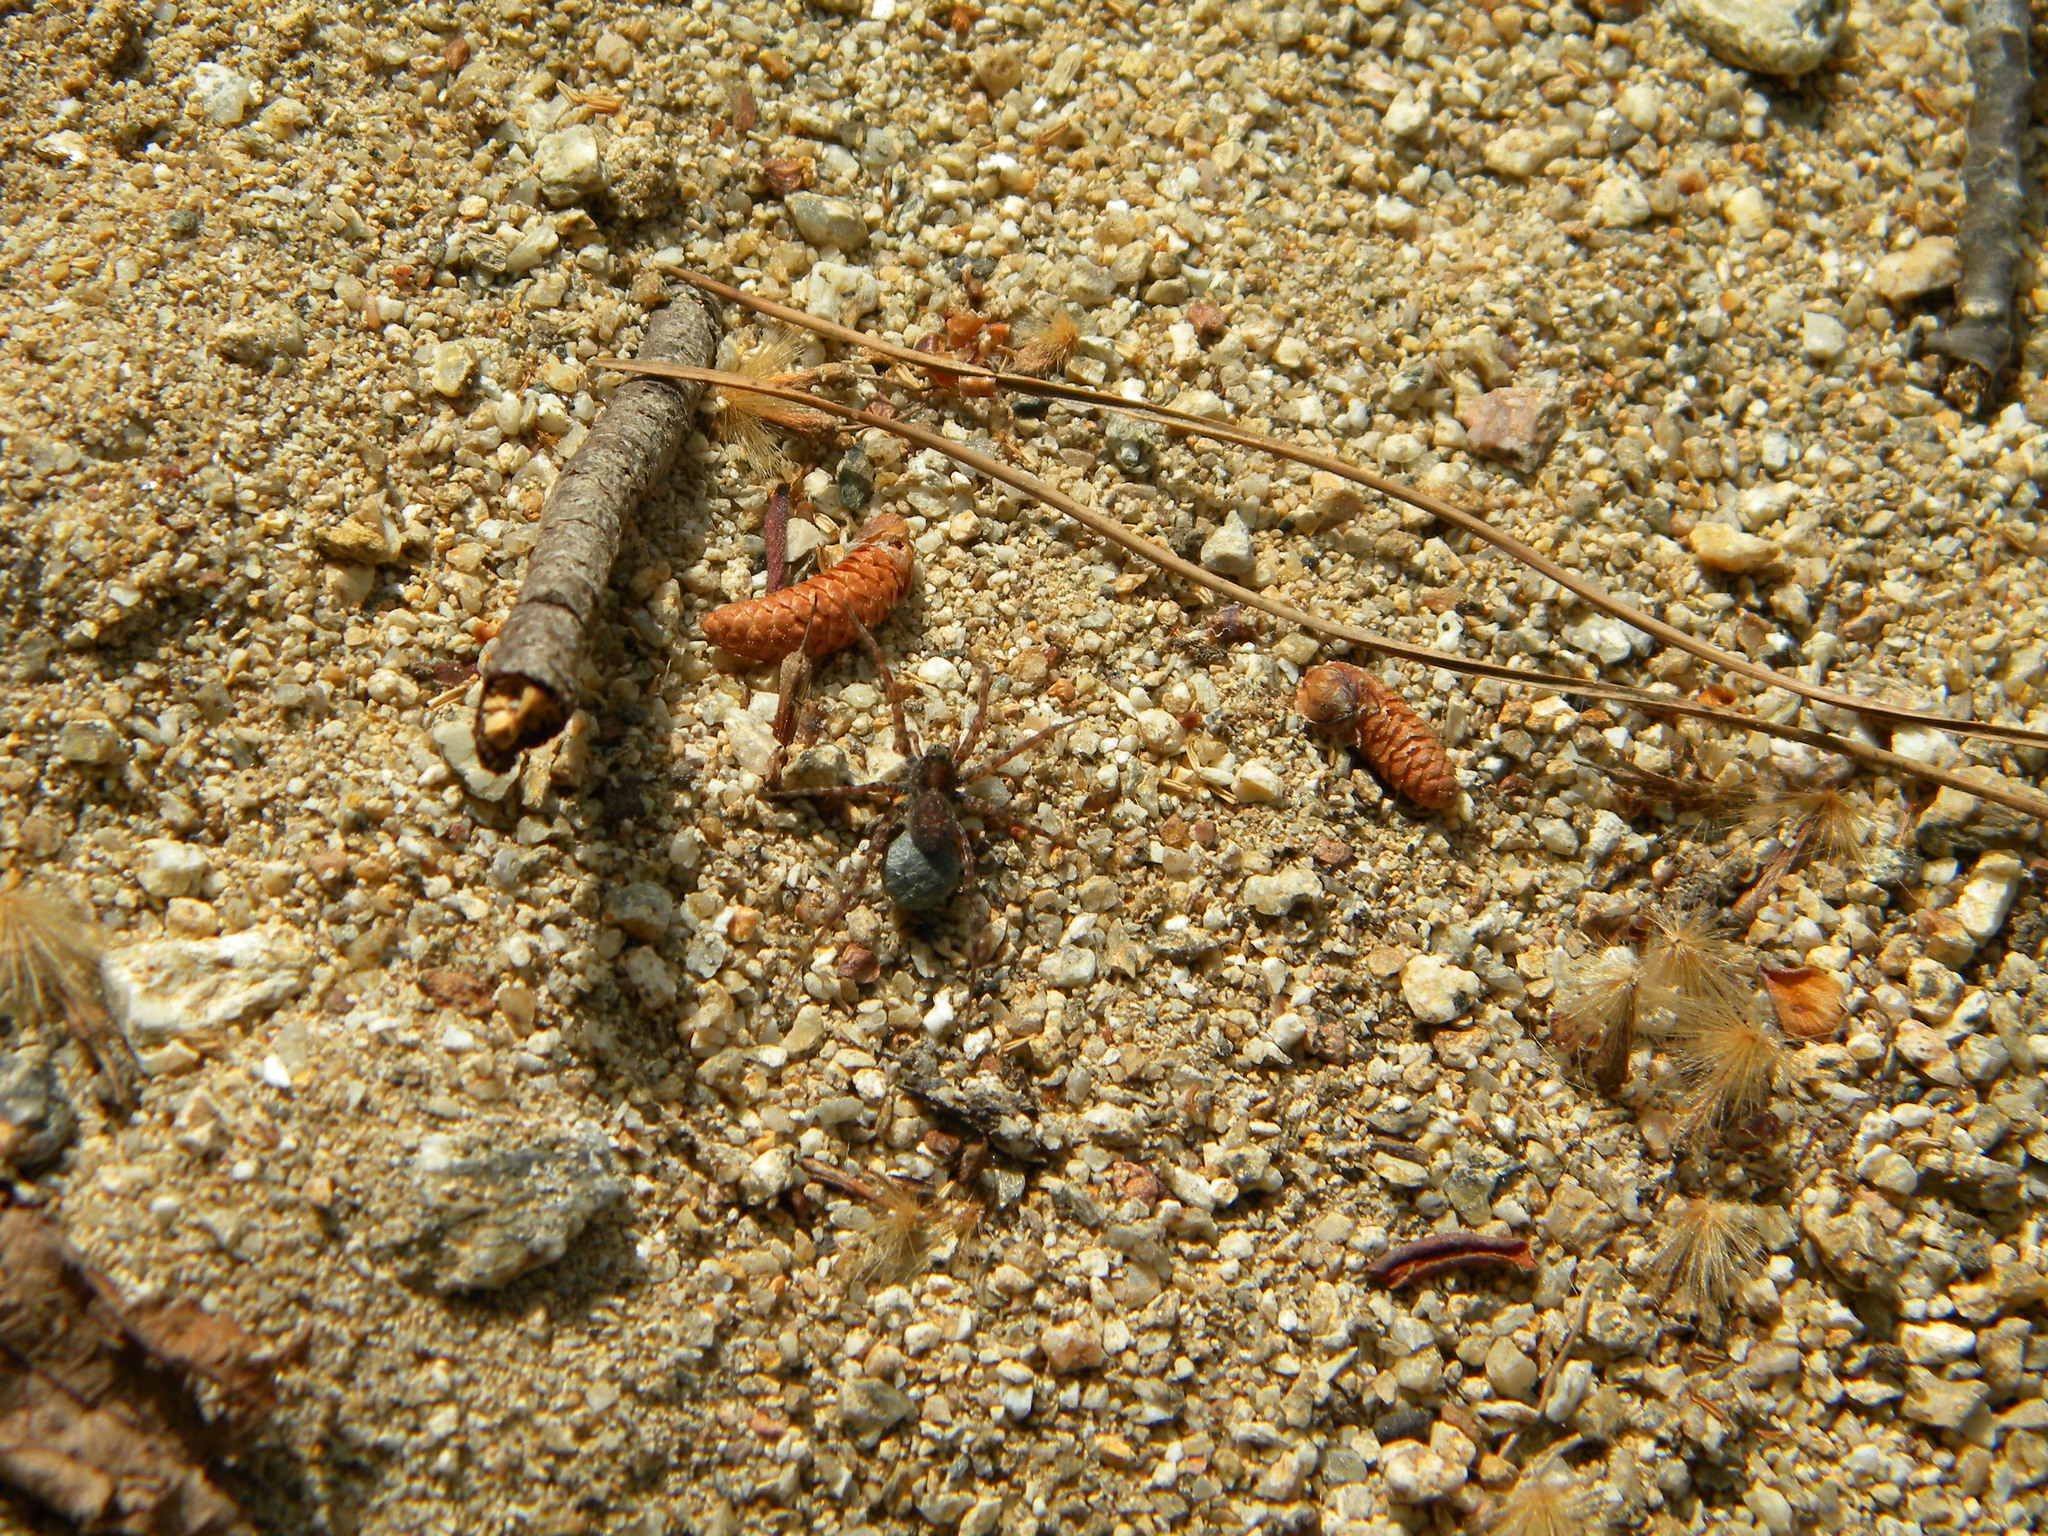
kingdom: Animalia
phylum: Arthropoda
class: Arachnida
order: Araneae
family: Lycosidae
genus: Pardosa
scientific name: Pardosa
